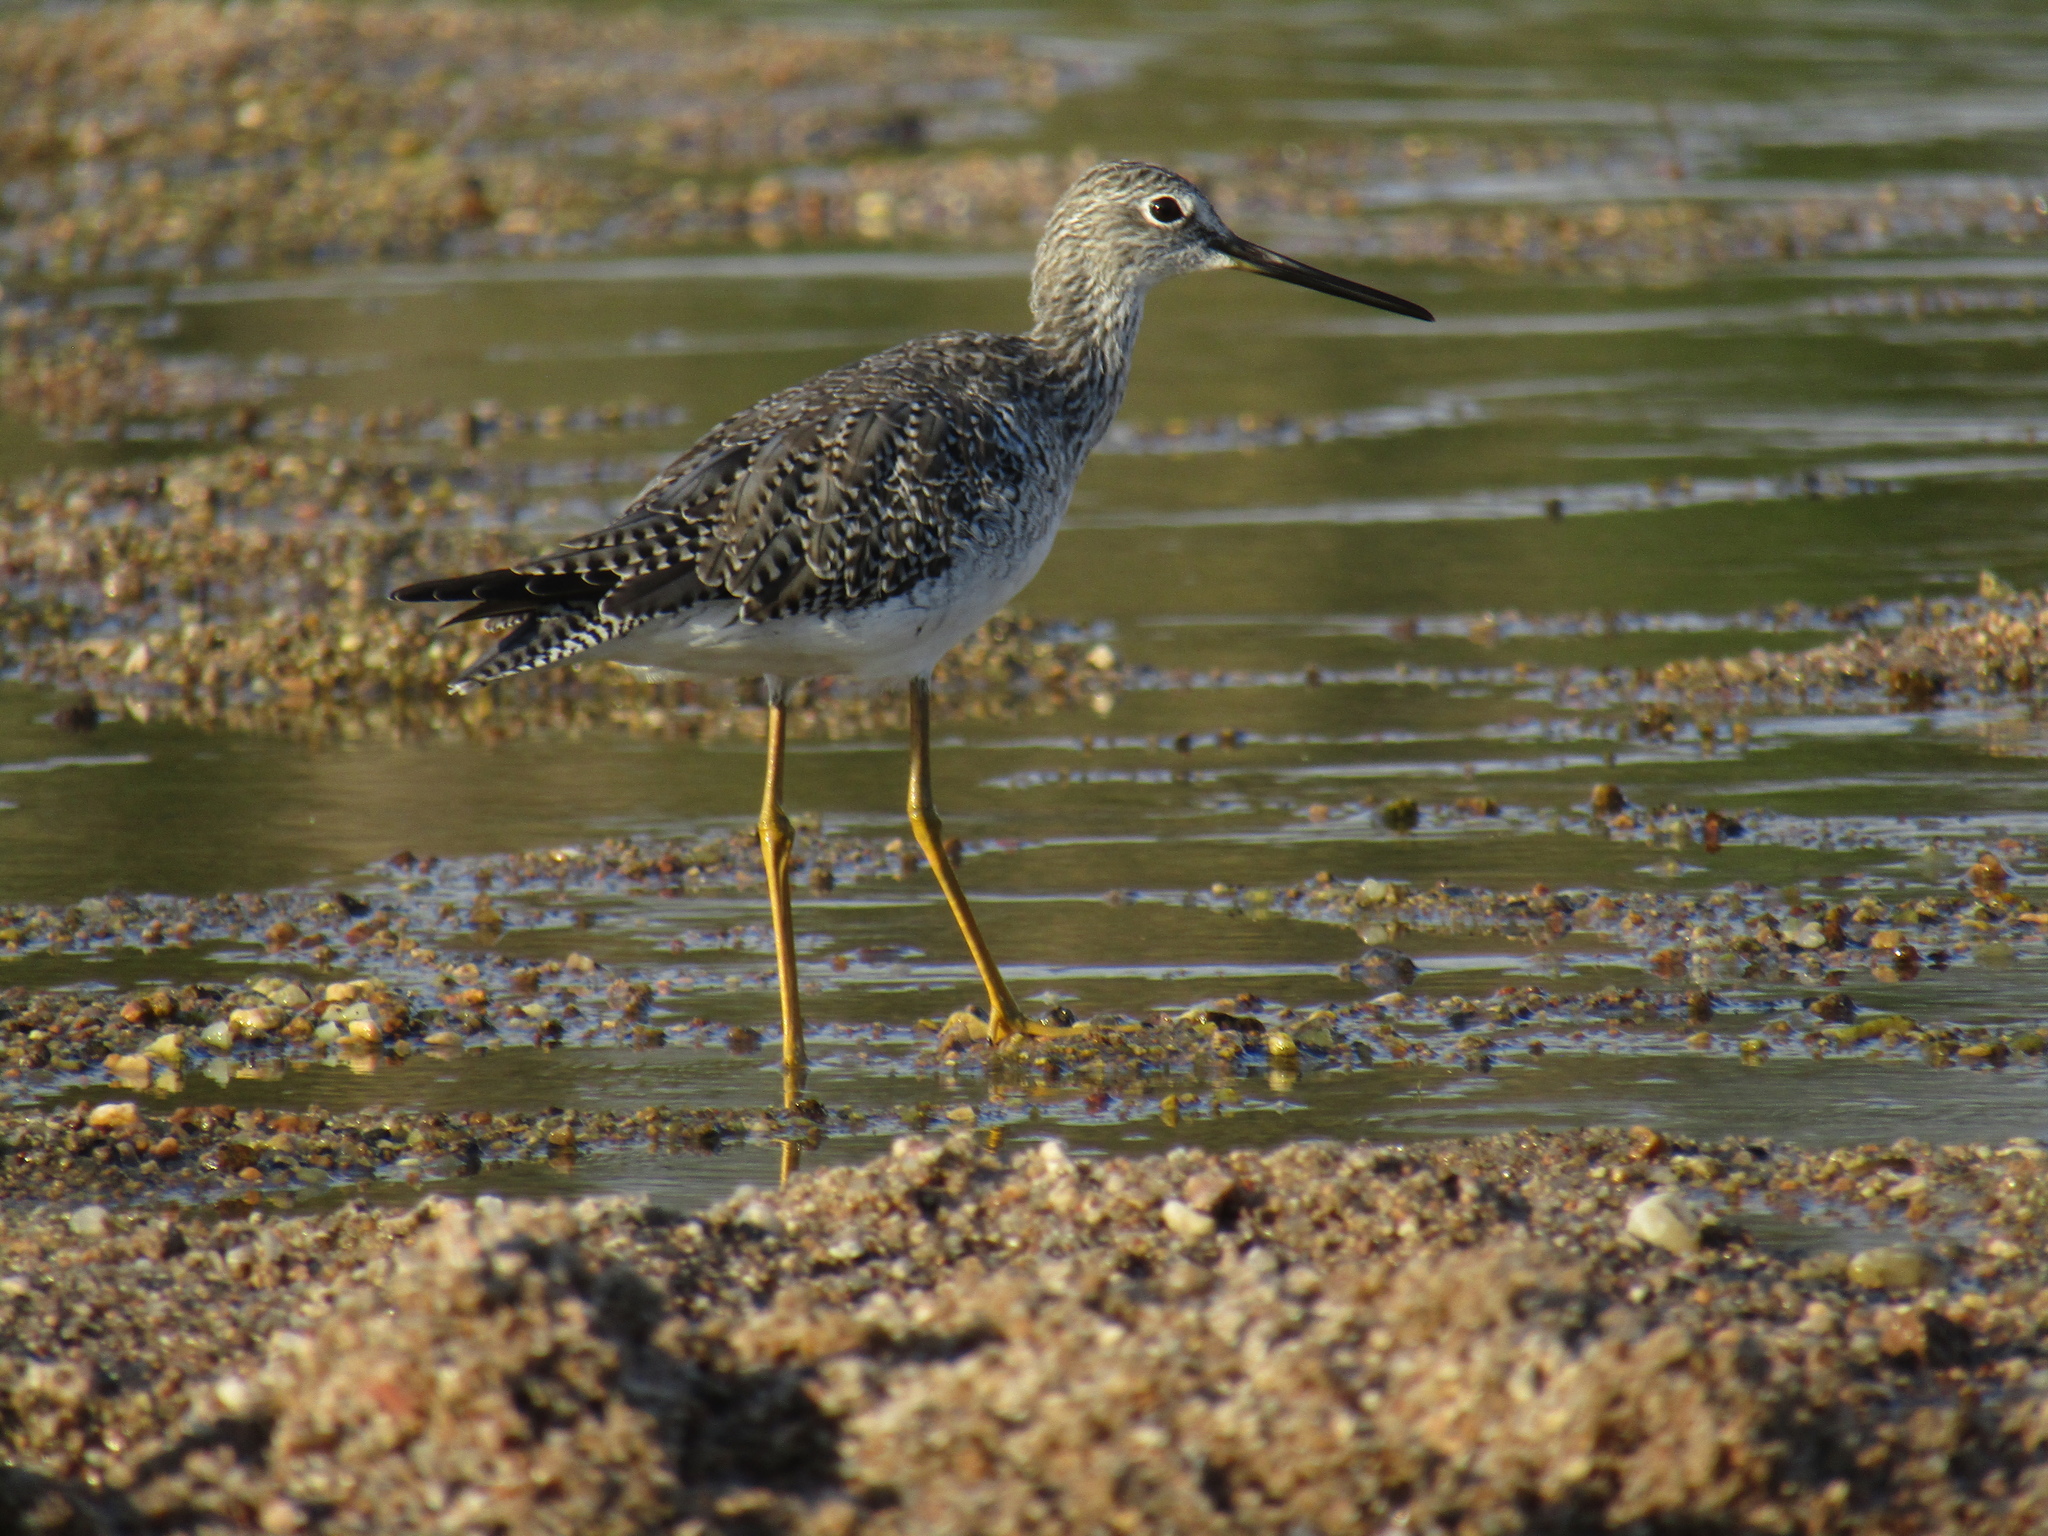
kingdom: Animalia
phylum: Chordata
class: Aves
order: Charadriiformes
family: Scolopacidae
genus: Tringa
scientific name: Tringa melanoleuca
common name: Greater yellowlegs
